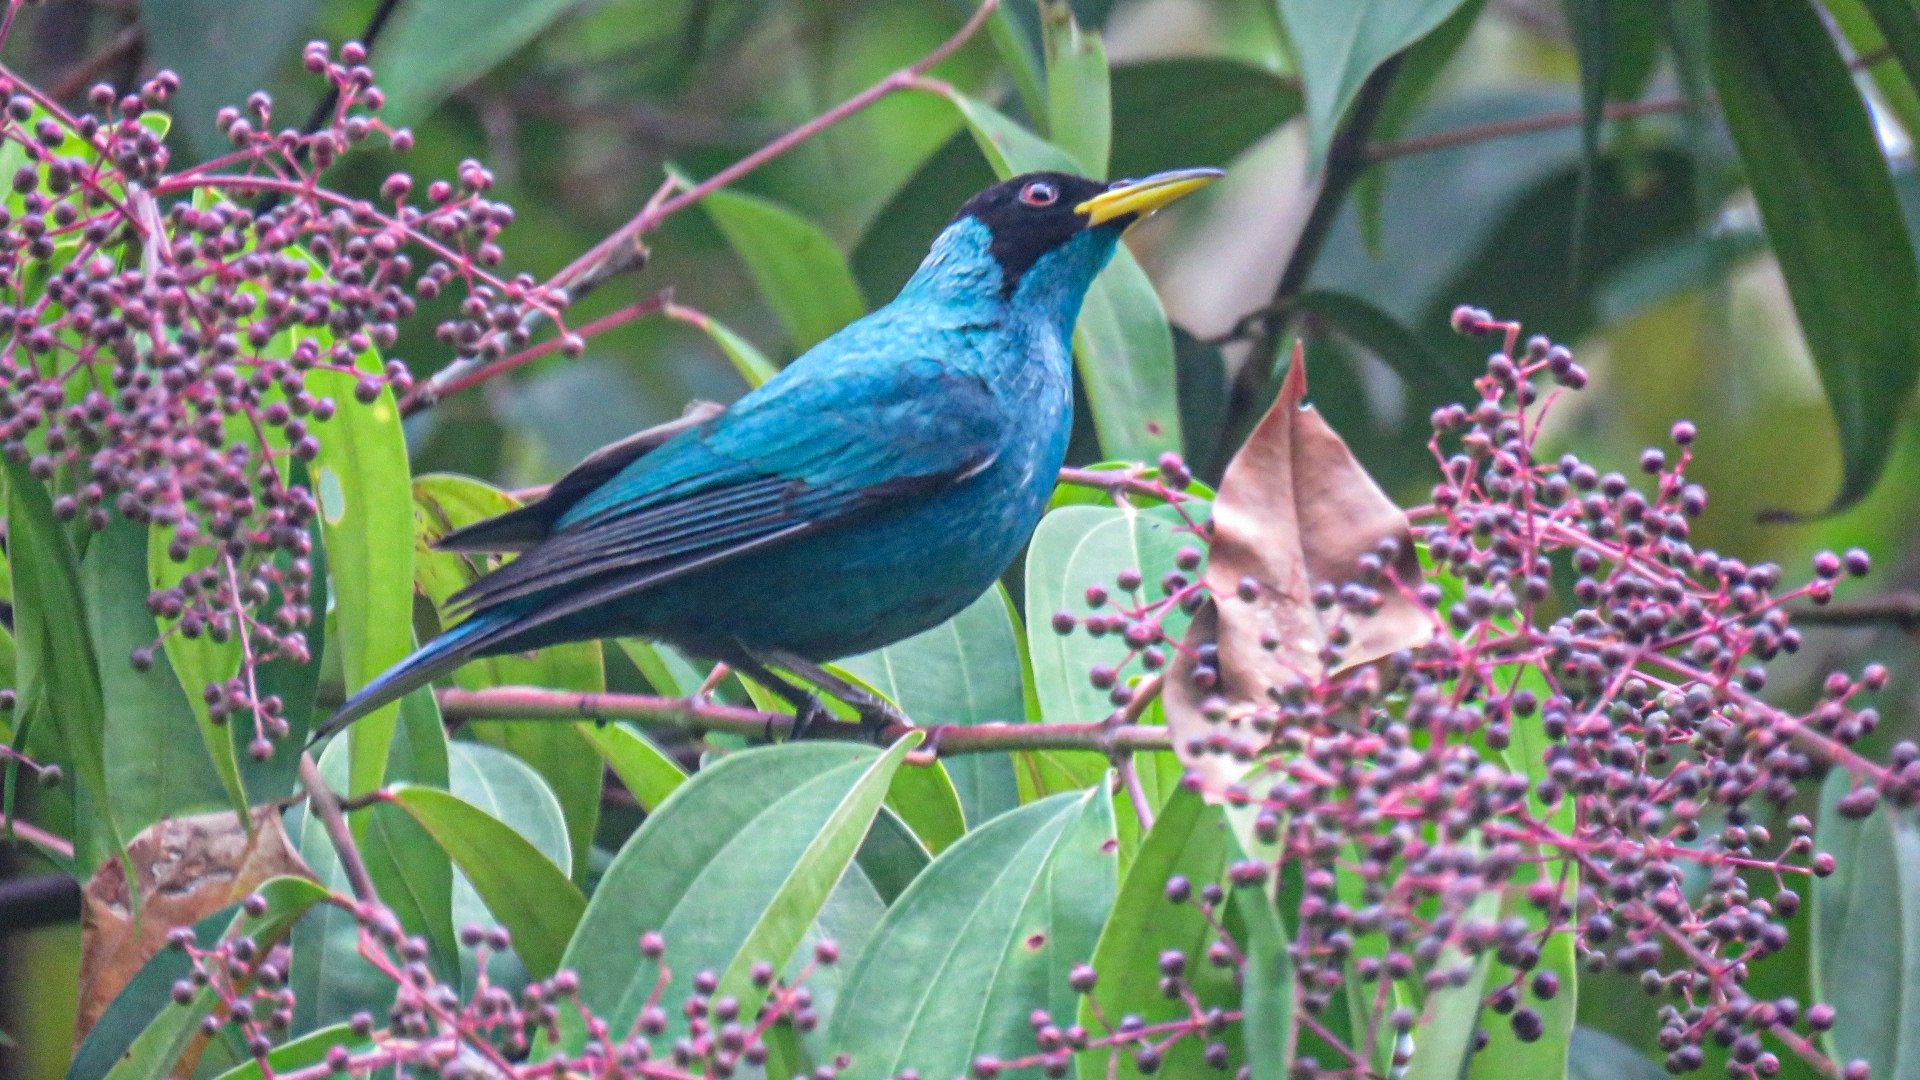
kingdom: Animalia
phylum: Chordata
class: Aves
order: Passeriformes
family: Thraupidae
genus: Chlorophanes
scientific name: Chlorophanes spiza
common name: Green honeycreeper
